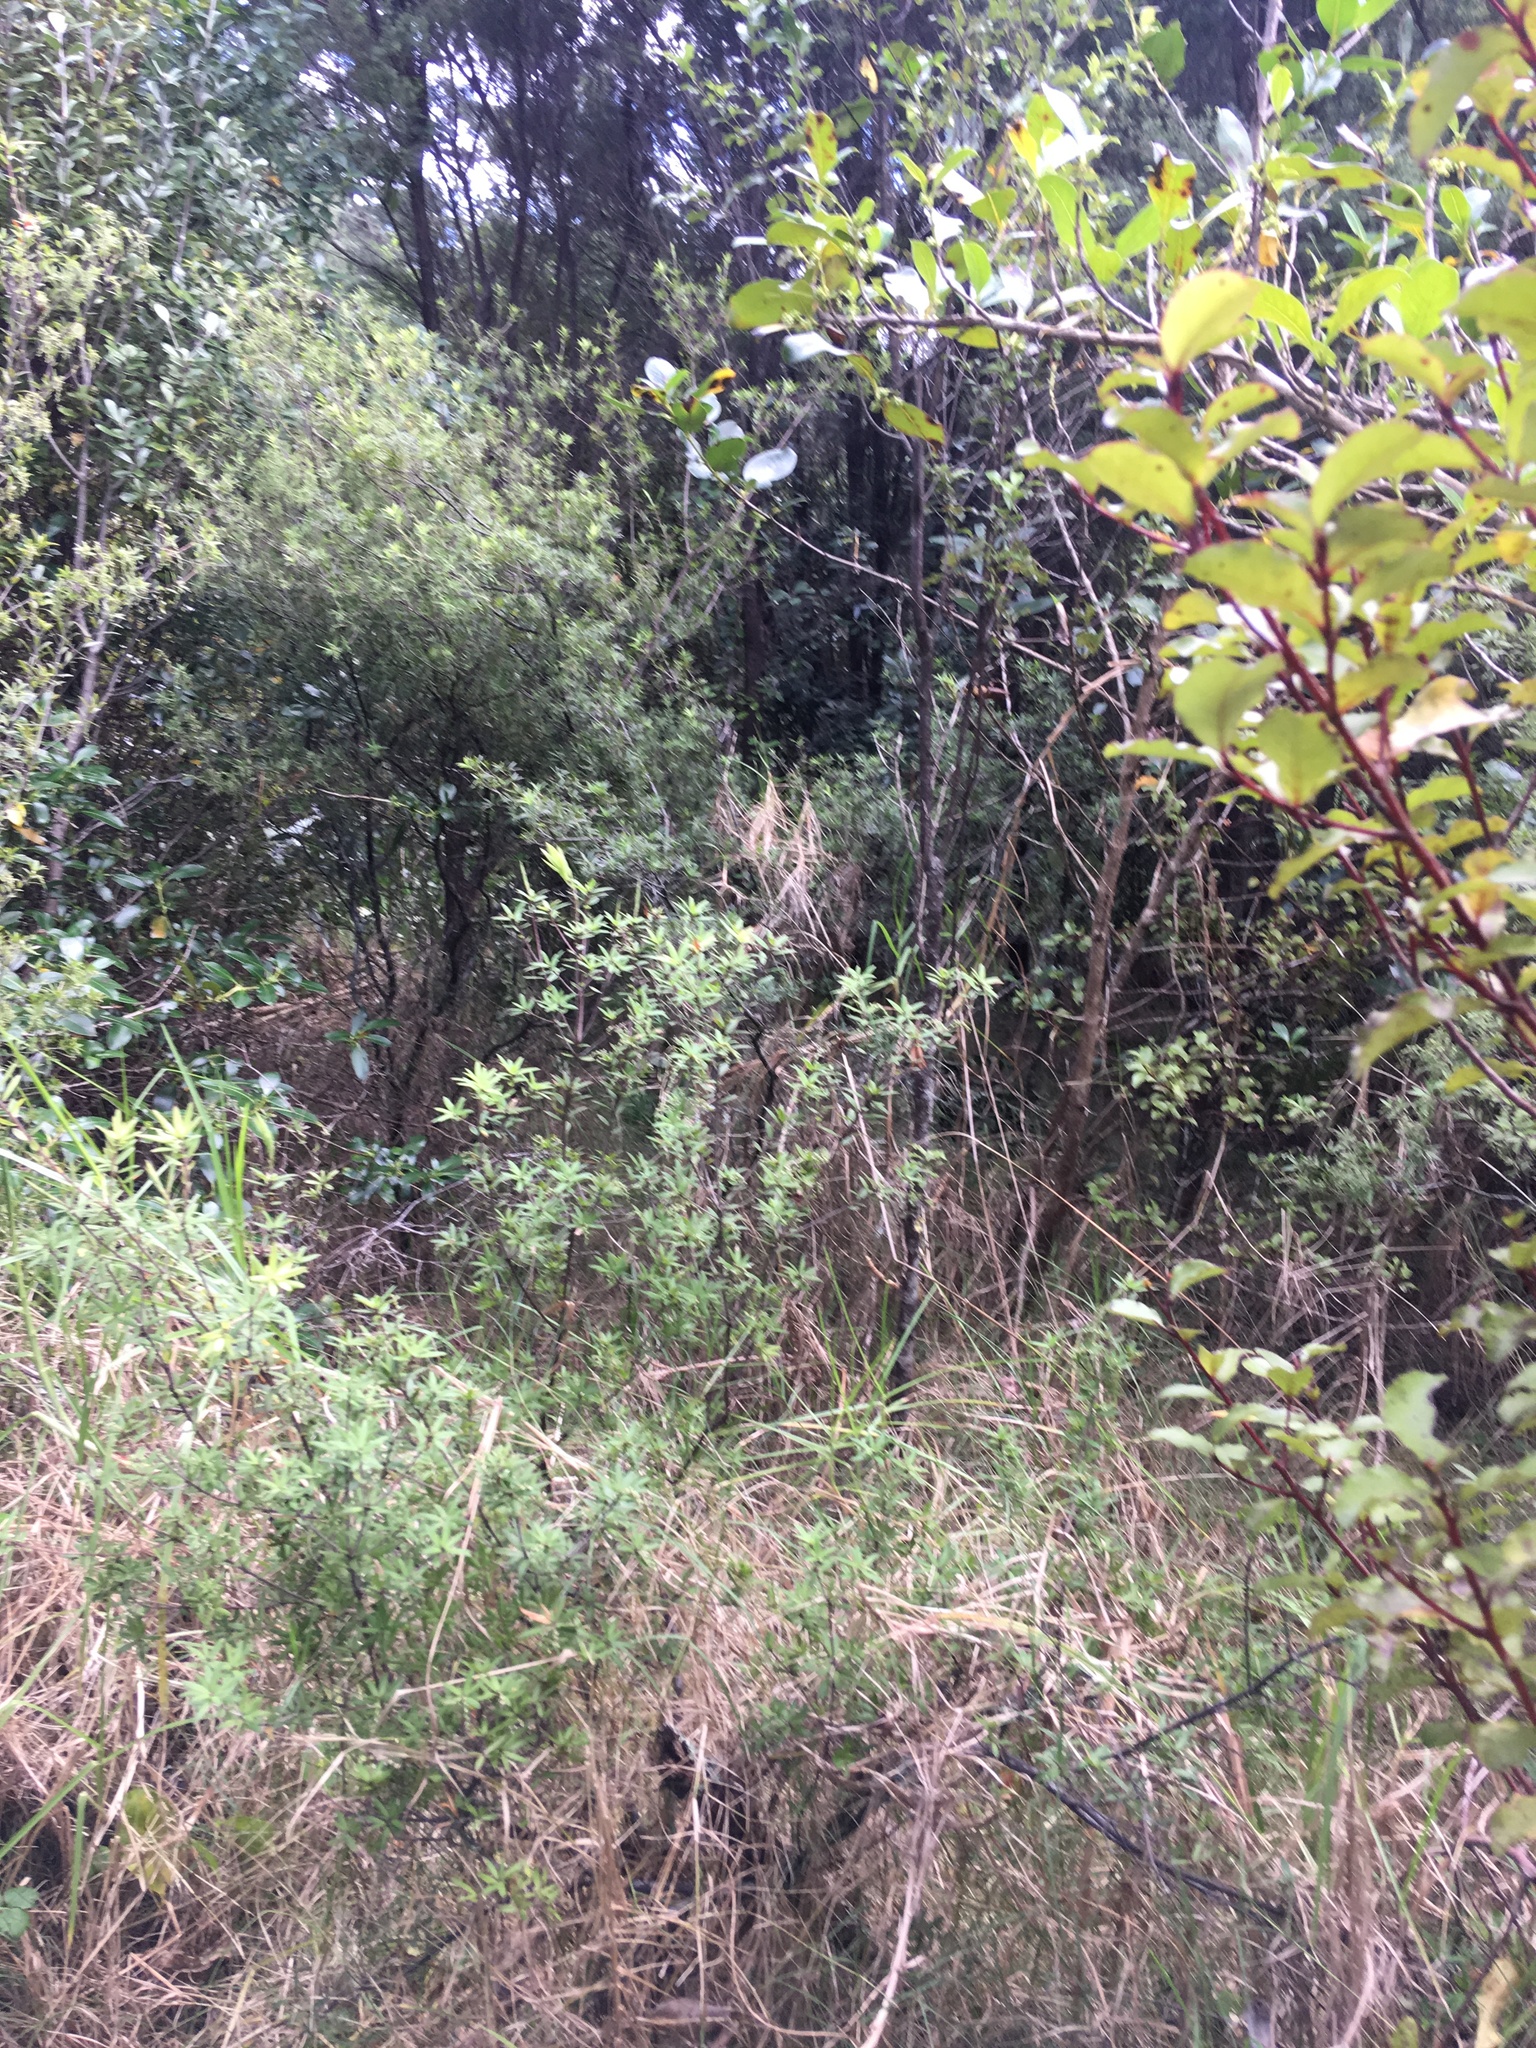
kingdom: Plantae
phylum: Tracheophyta
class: Liliopsida
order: Poales
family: Poaceae
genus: Cenchrus
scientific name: Cenchrus clandestinus
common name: Kikuyugrass
